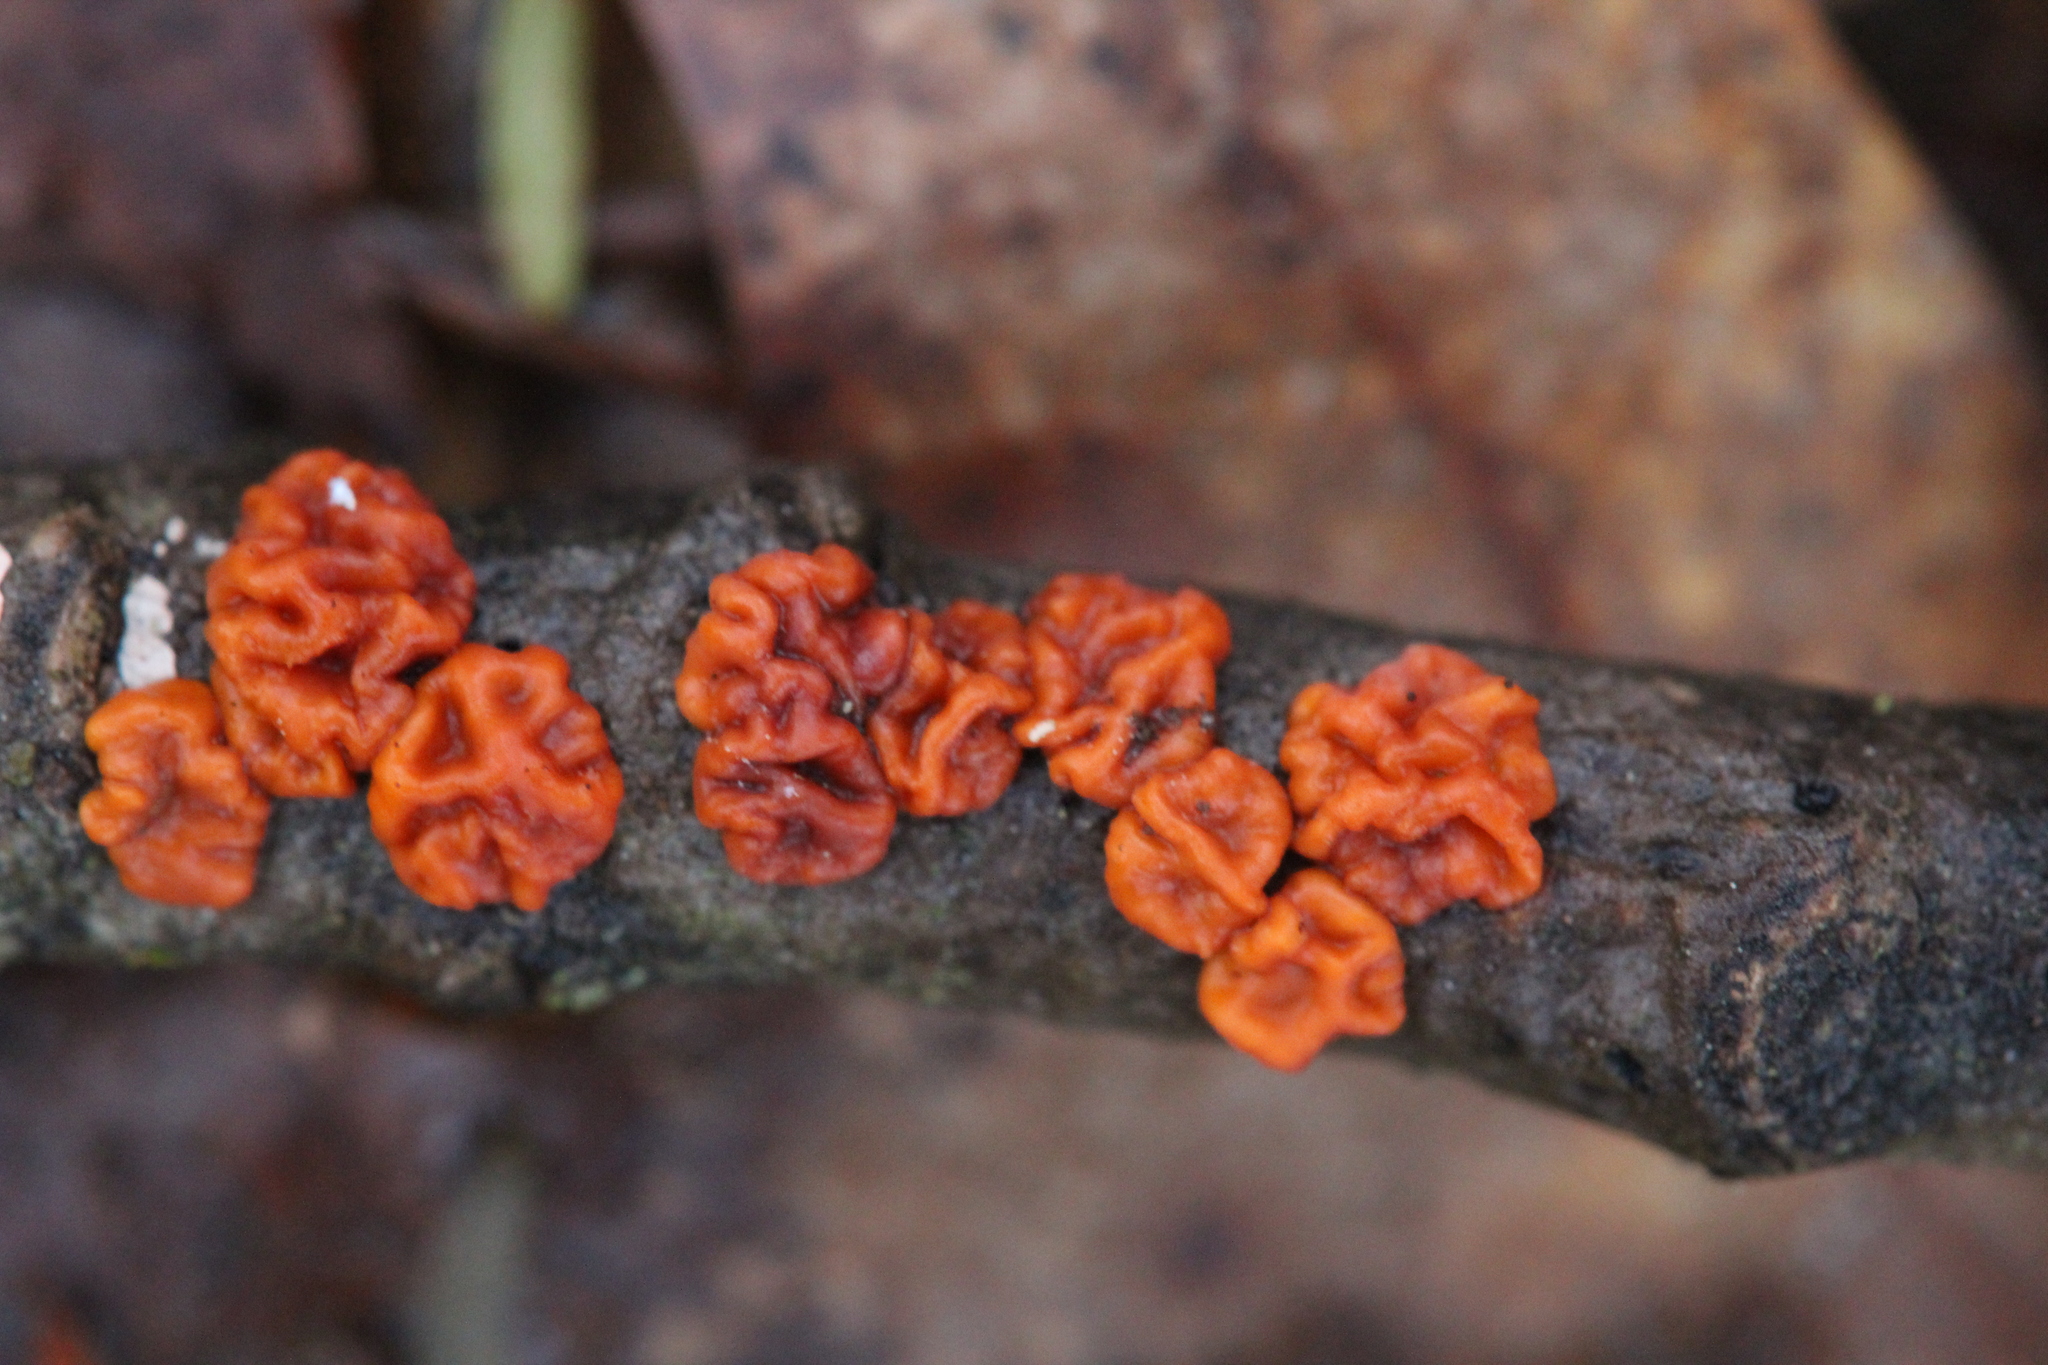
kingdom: Fungi
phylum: Basidiomycota
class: Agaricomycetes
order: Russulales
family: Peniophoraceae
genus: Peniophora
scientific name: Peniophora rufa
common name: Red tree brain fungus
